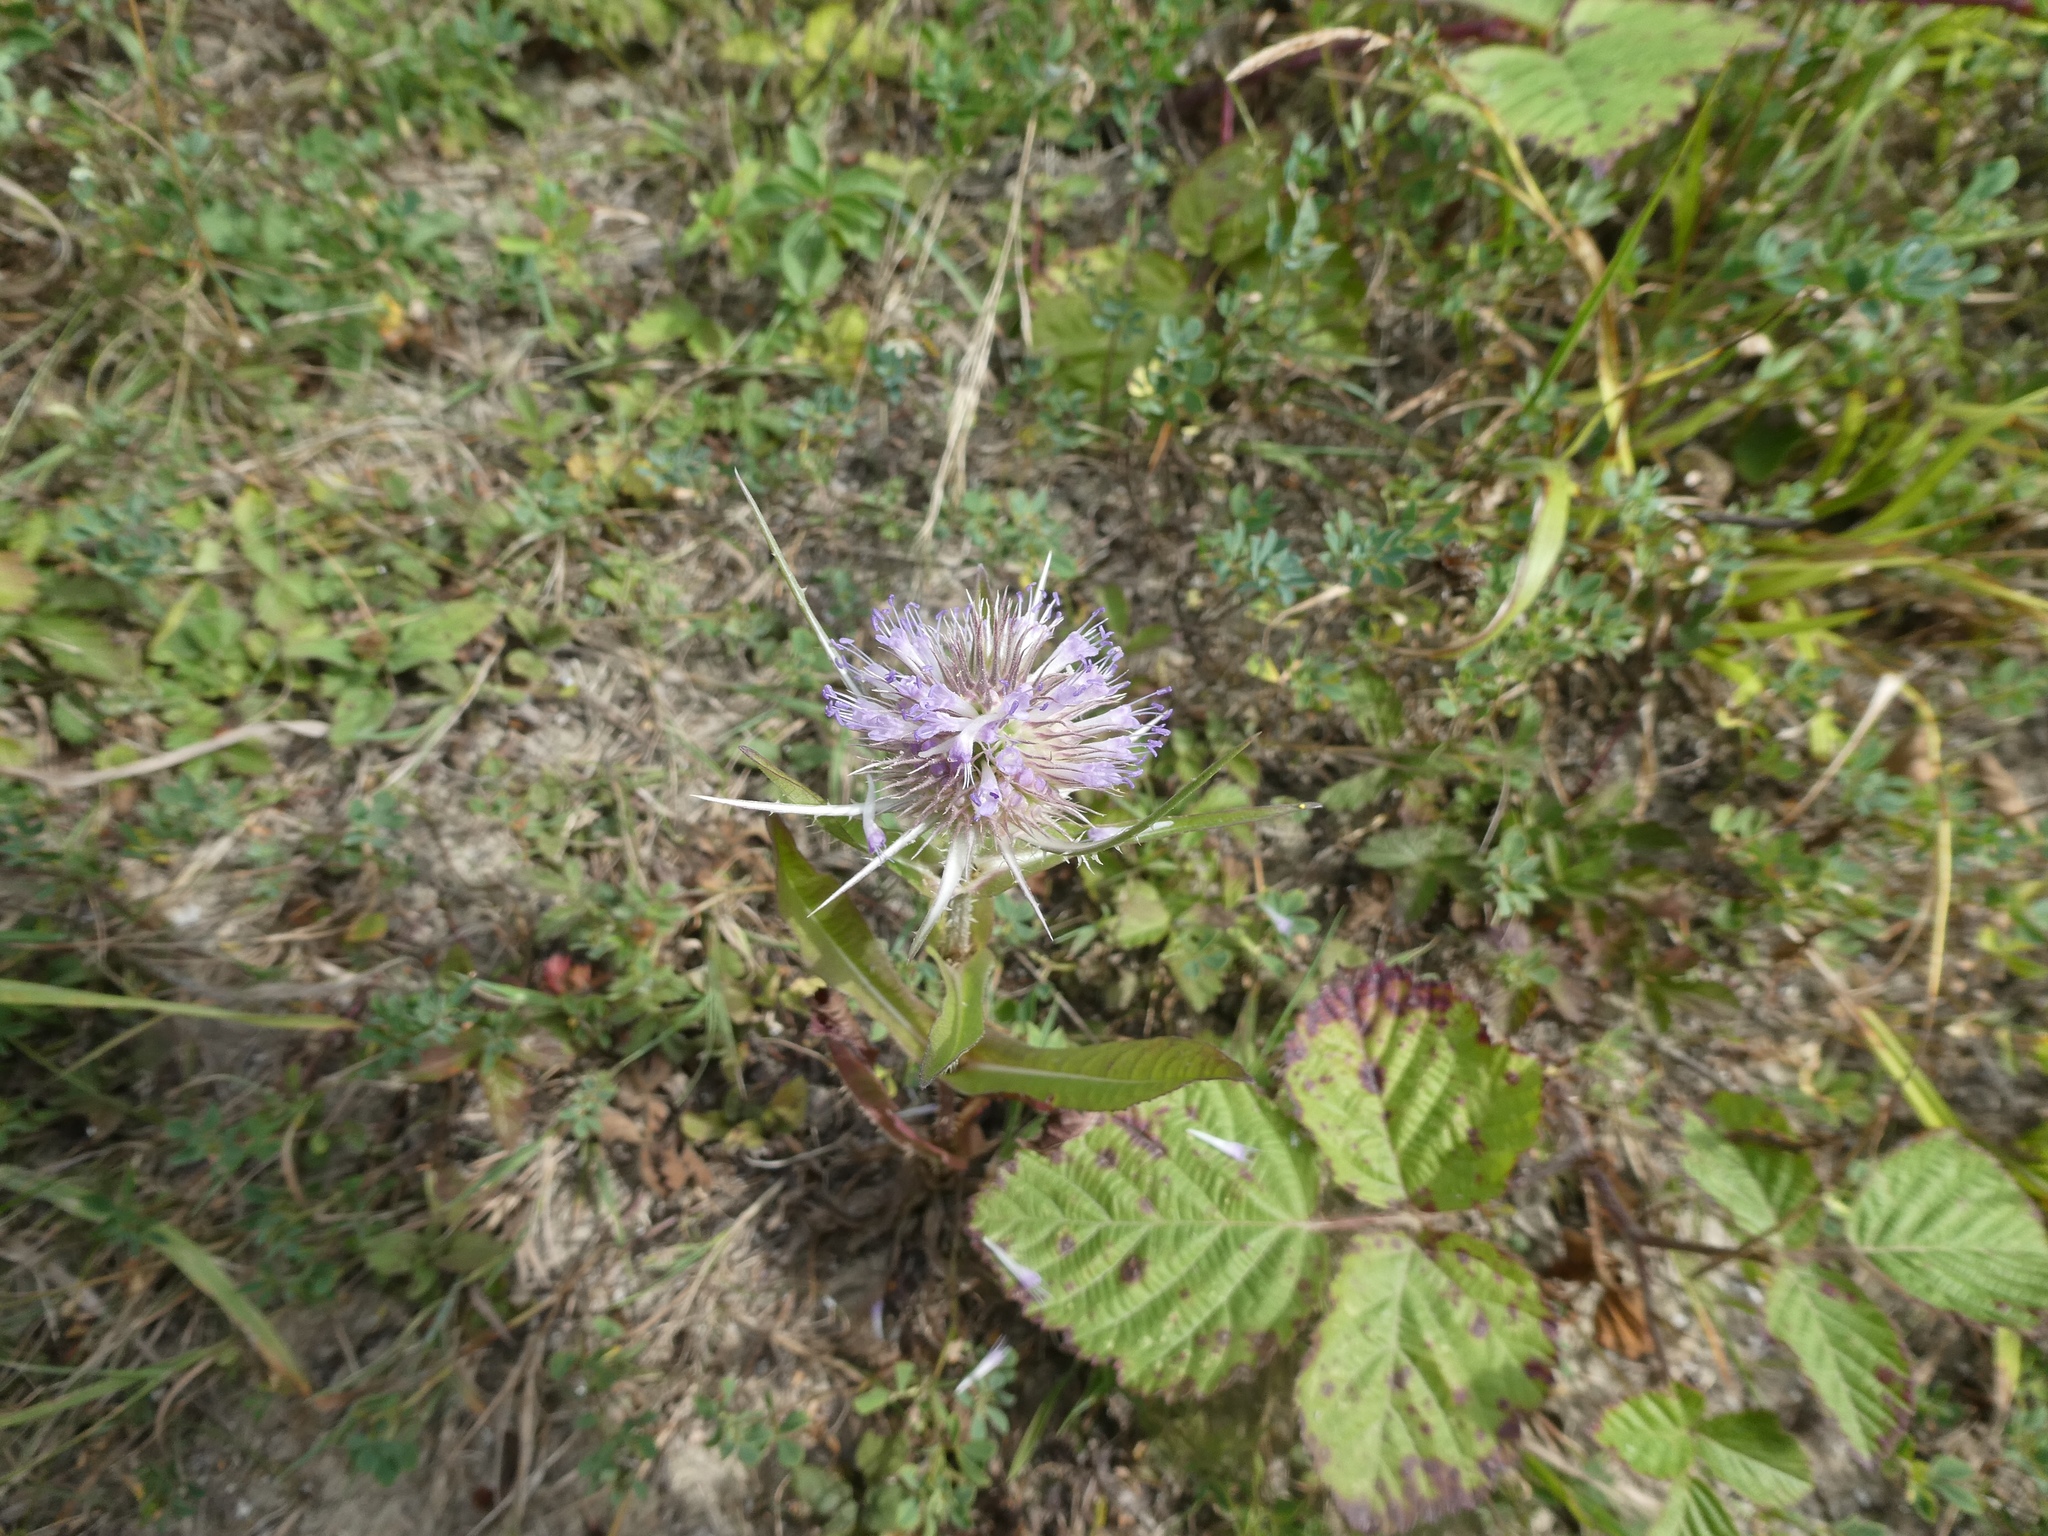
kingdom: Plantae
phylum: Tracheophyta
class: Magnoliopsida
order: Dipsacales
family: Caprifoliaceae
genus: Dipsacus
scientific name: Dipsacus fullonum
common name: Teasel
